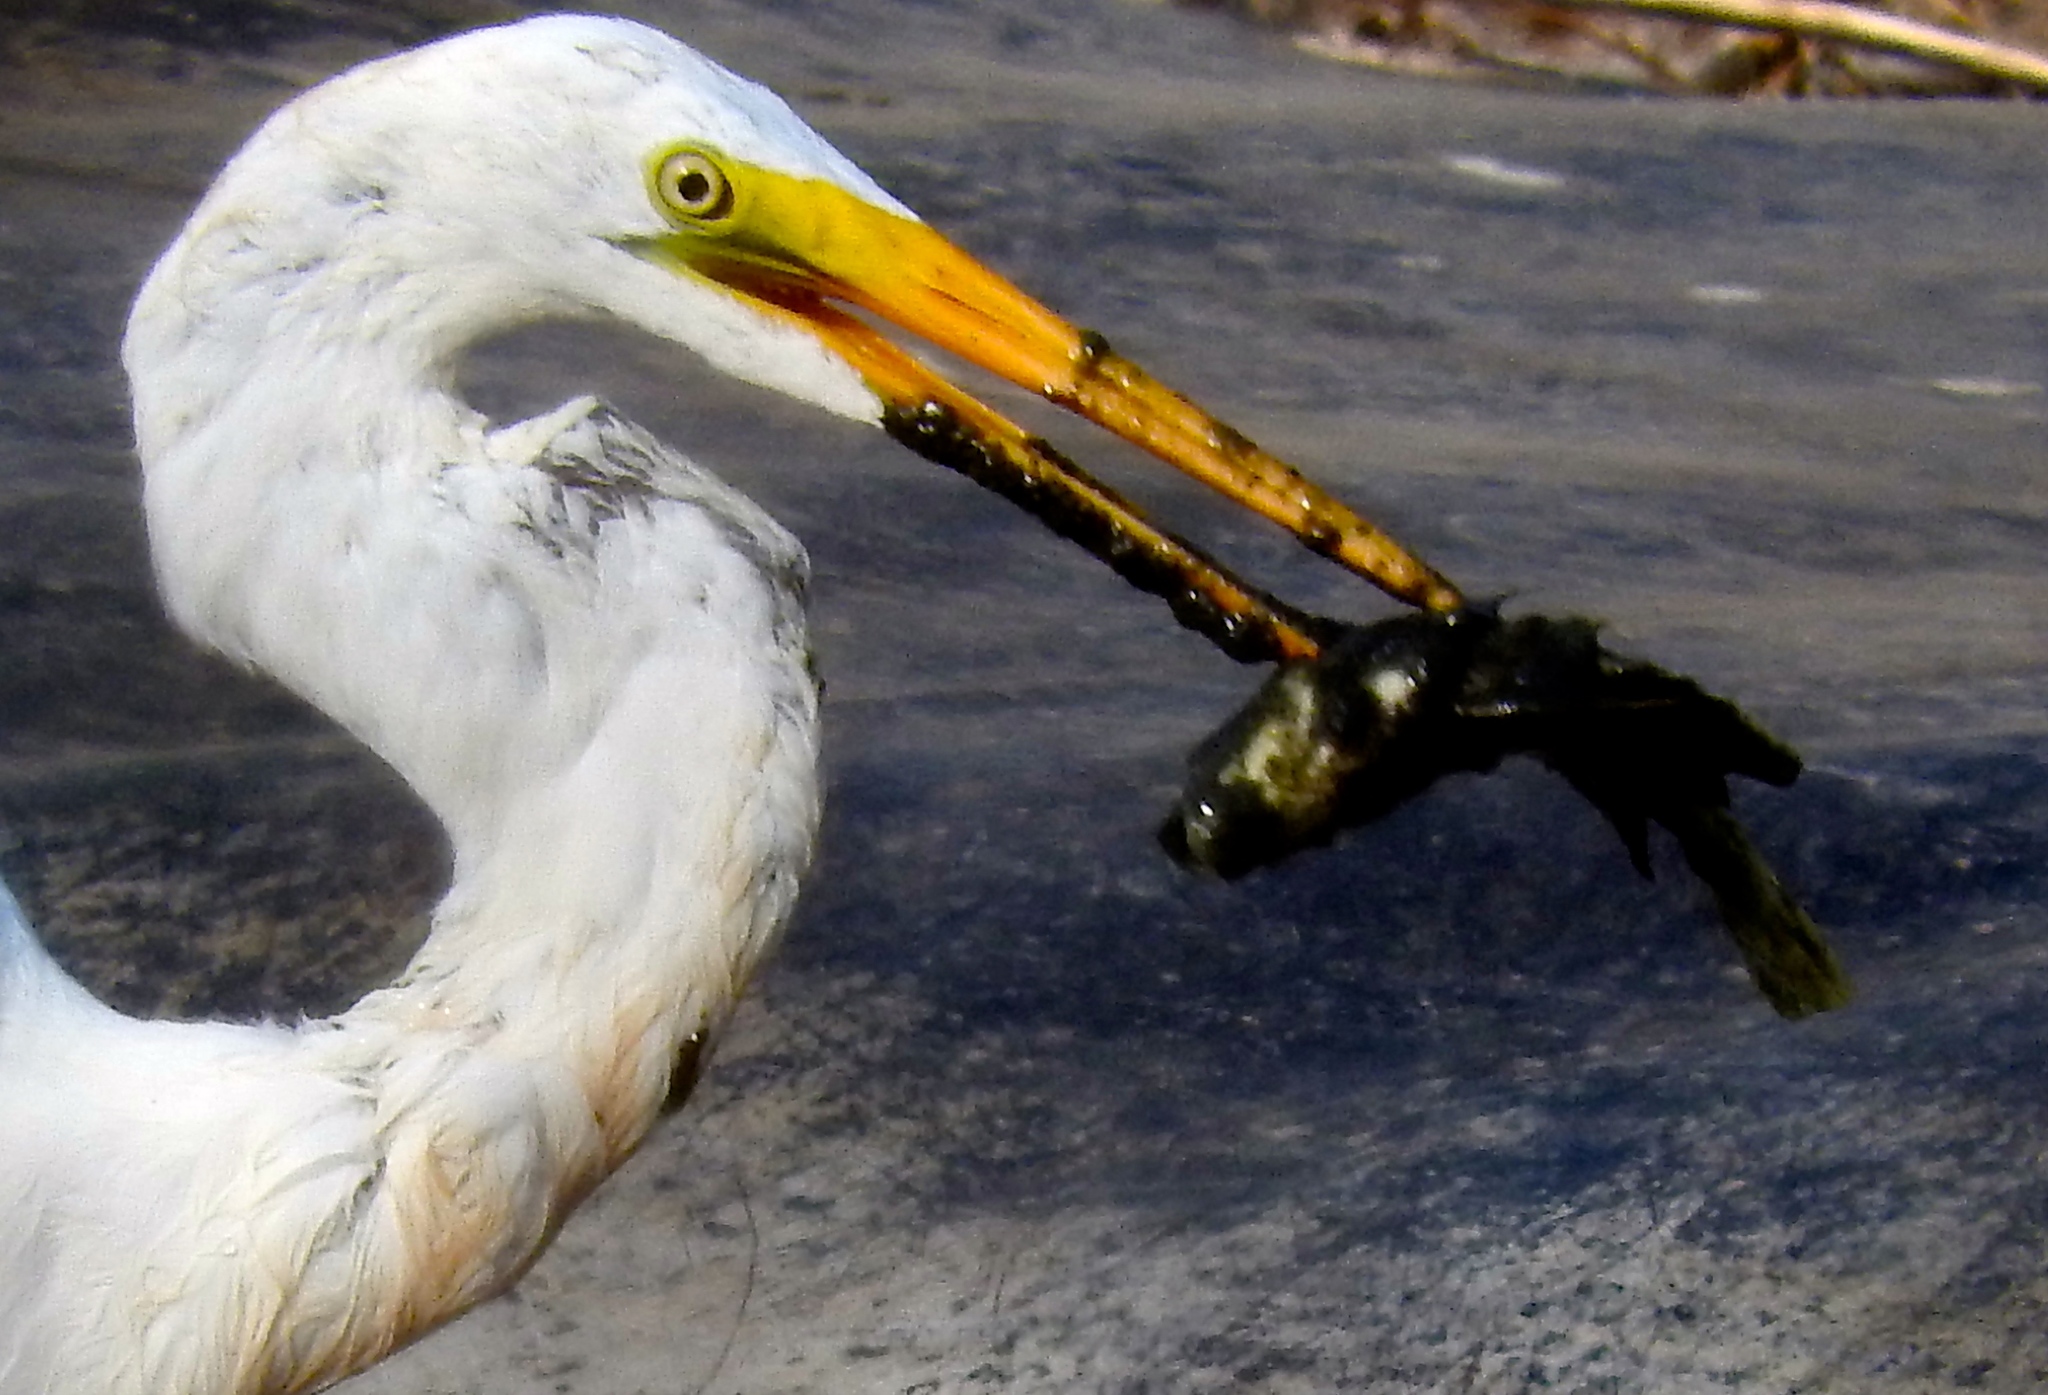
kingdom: Animalia
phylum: Chordata
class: Aves
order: Pelecaniformes
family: Ardeidae
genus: Ardea
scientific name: Ardea alba
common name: Great egret
